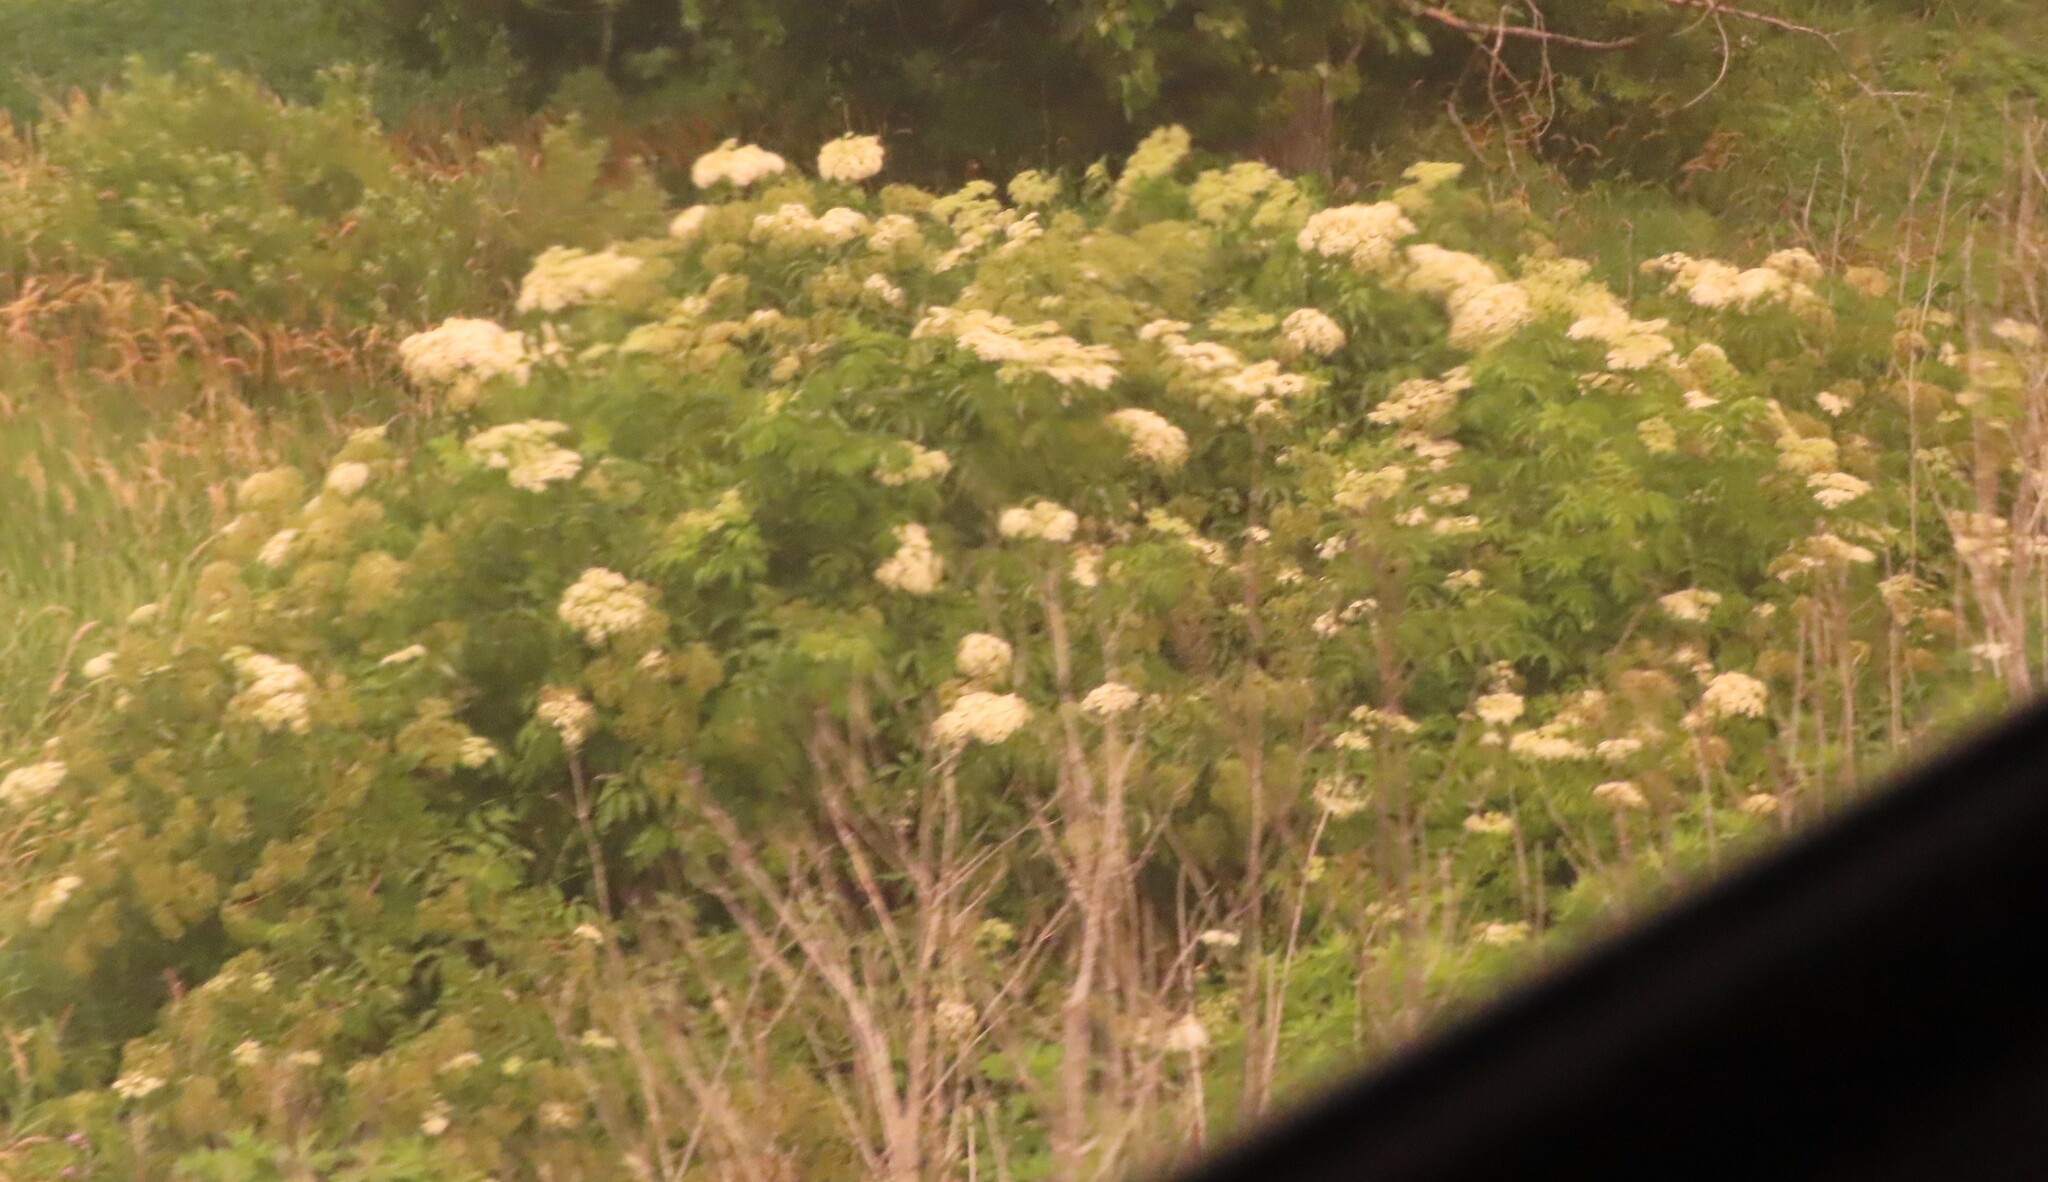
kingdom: Plantae
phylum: Tracheophyta
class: Magnoliopsida
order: Dipsacales
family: Viburnaceae
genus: Sambucus
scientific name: Sambucus canadensis
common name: American elder
